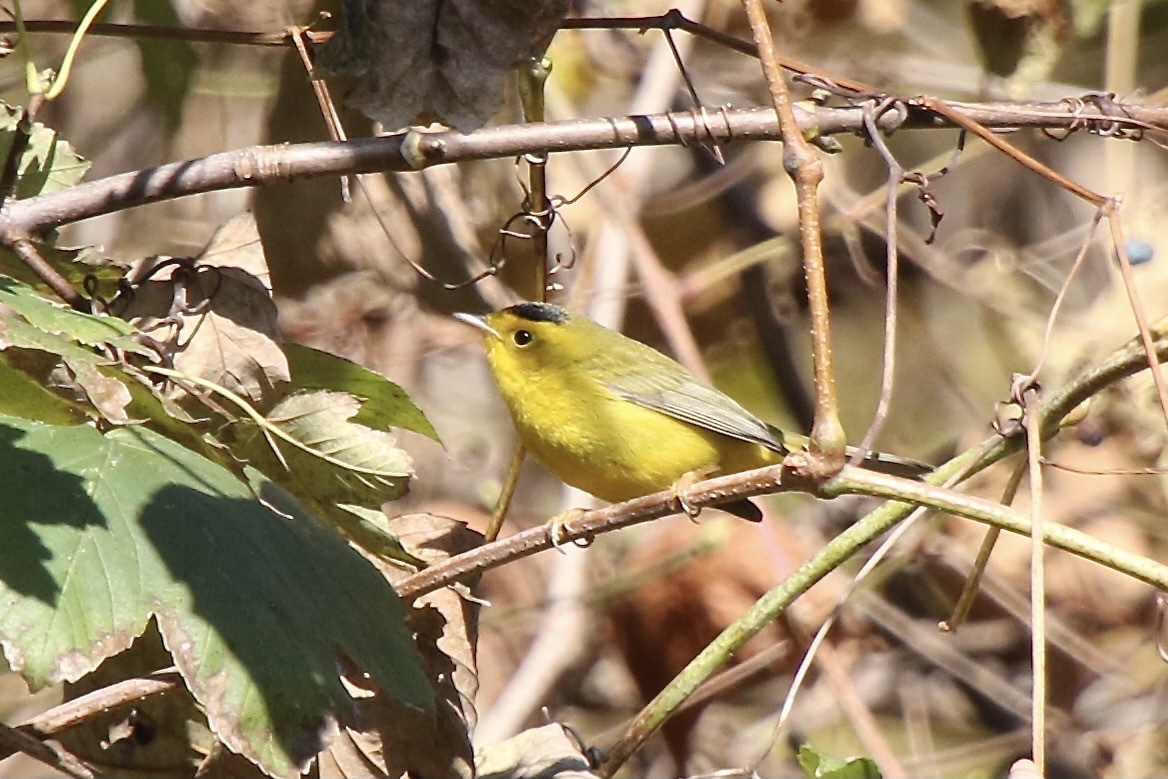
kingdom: Animalia
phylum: Chordata
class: Aves
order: Passeriformes
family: Parulidae
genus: Cardellina
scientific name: Cardellina pusilla
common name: Wilson's warbler
